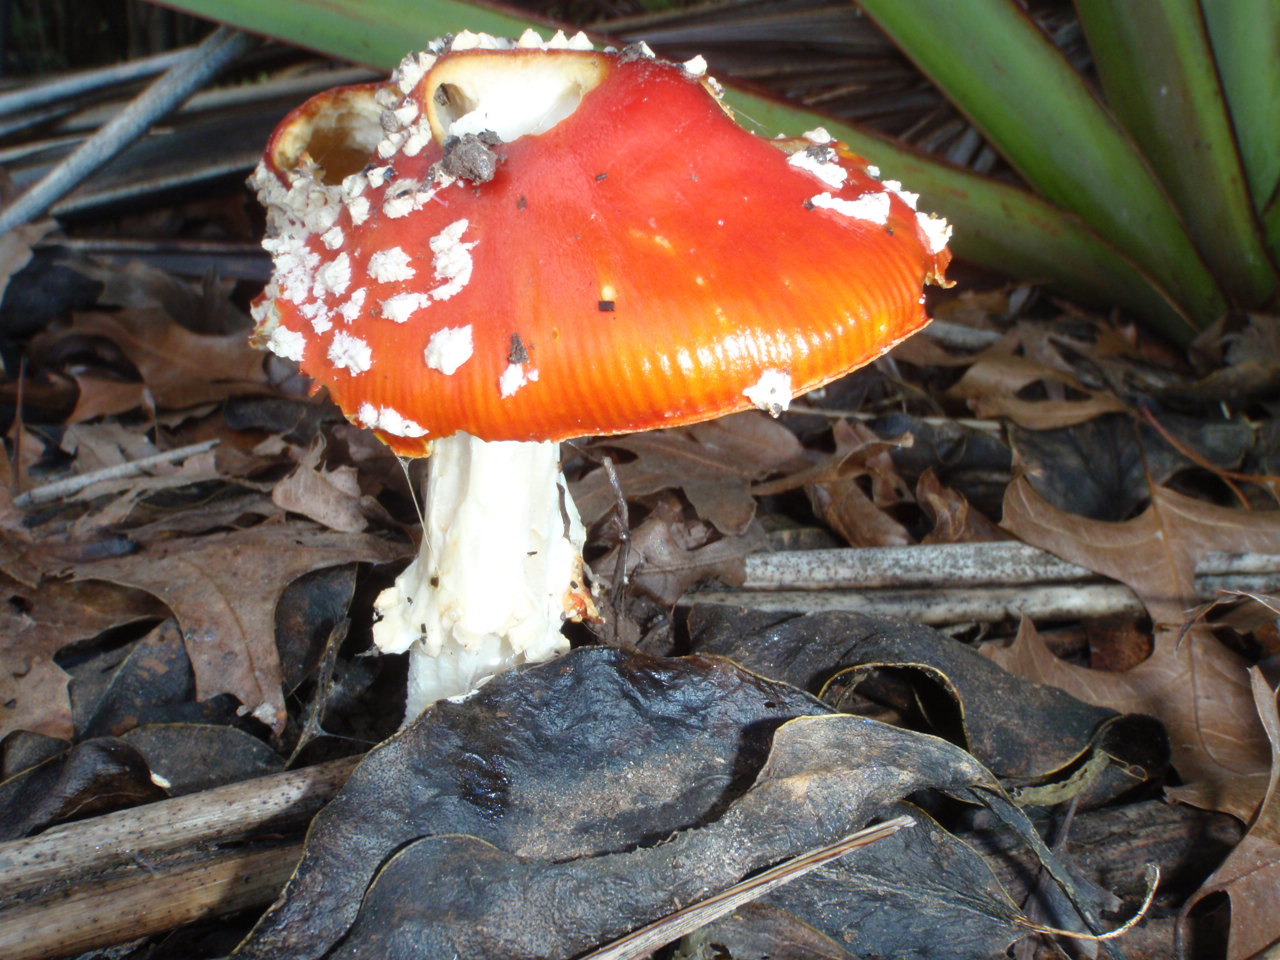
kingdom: Fungi
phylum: Basidiomycota
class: Agaricomycetes
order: Agaricales
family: Amanitaceae
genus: Amanita
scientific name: Amanita muscaria
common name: Fly agaric
